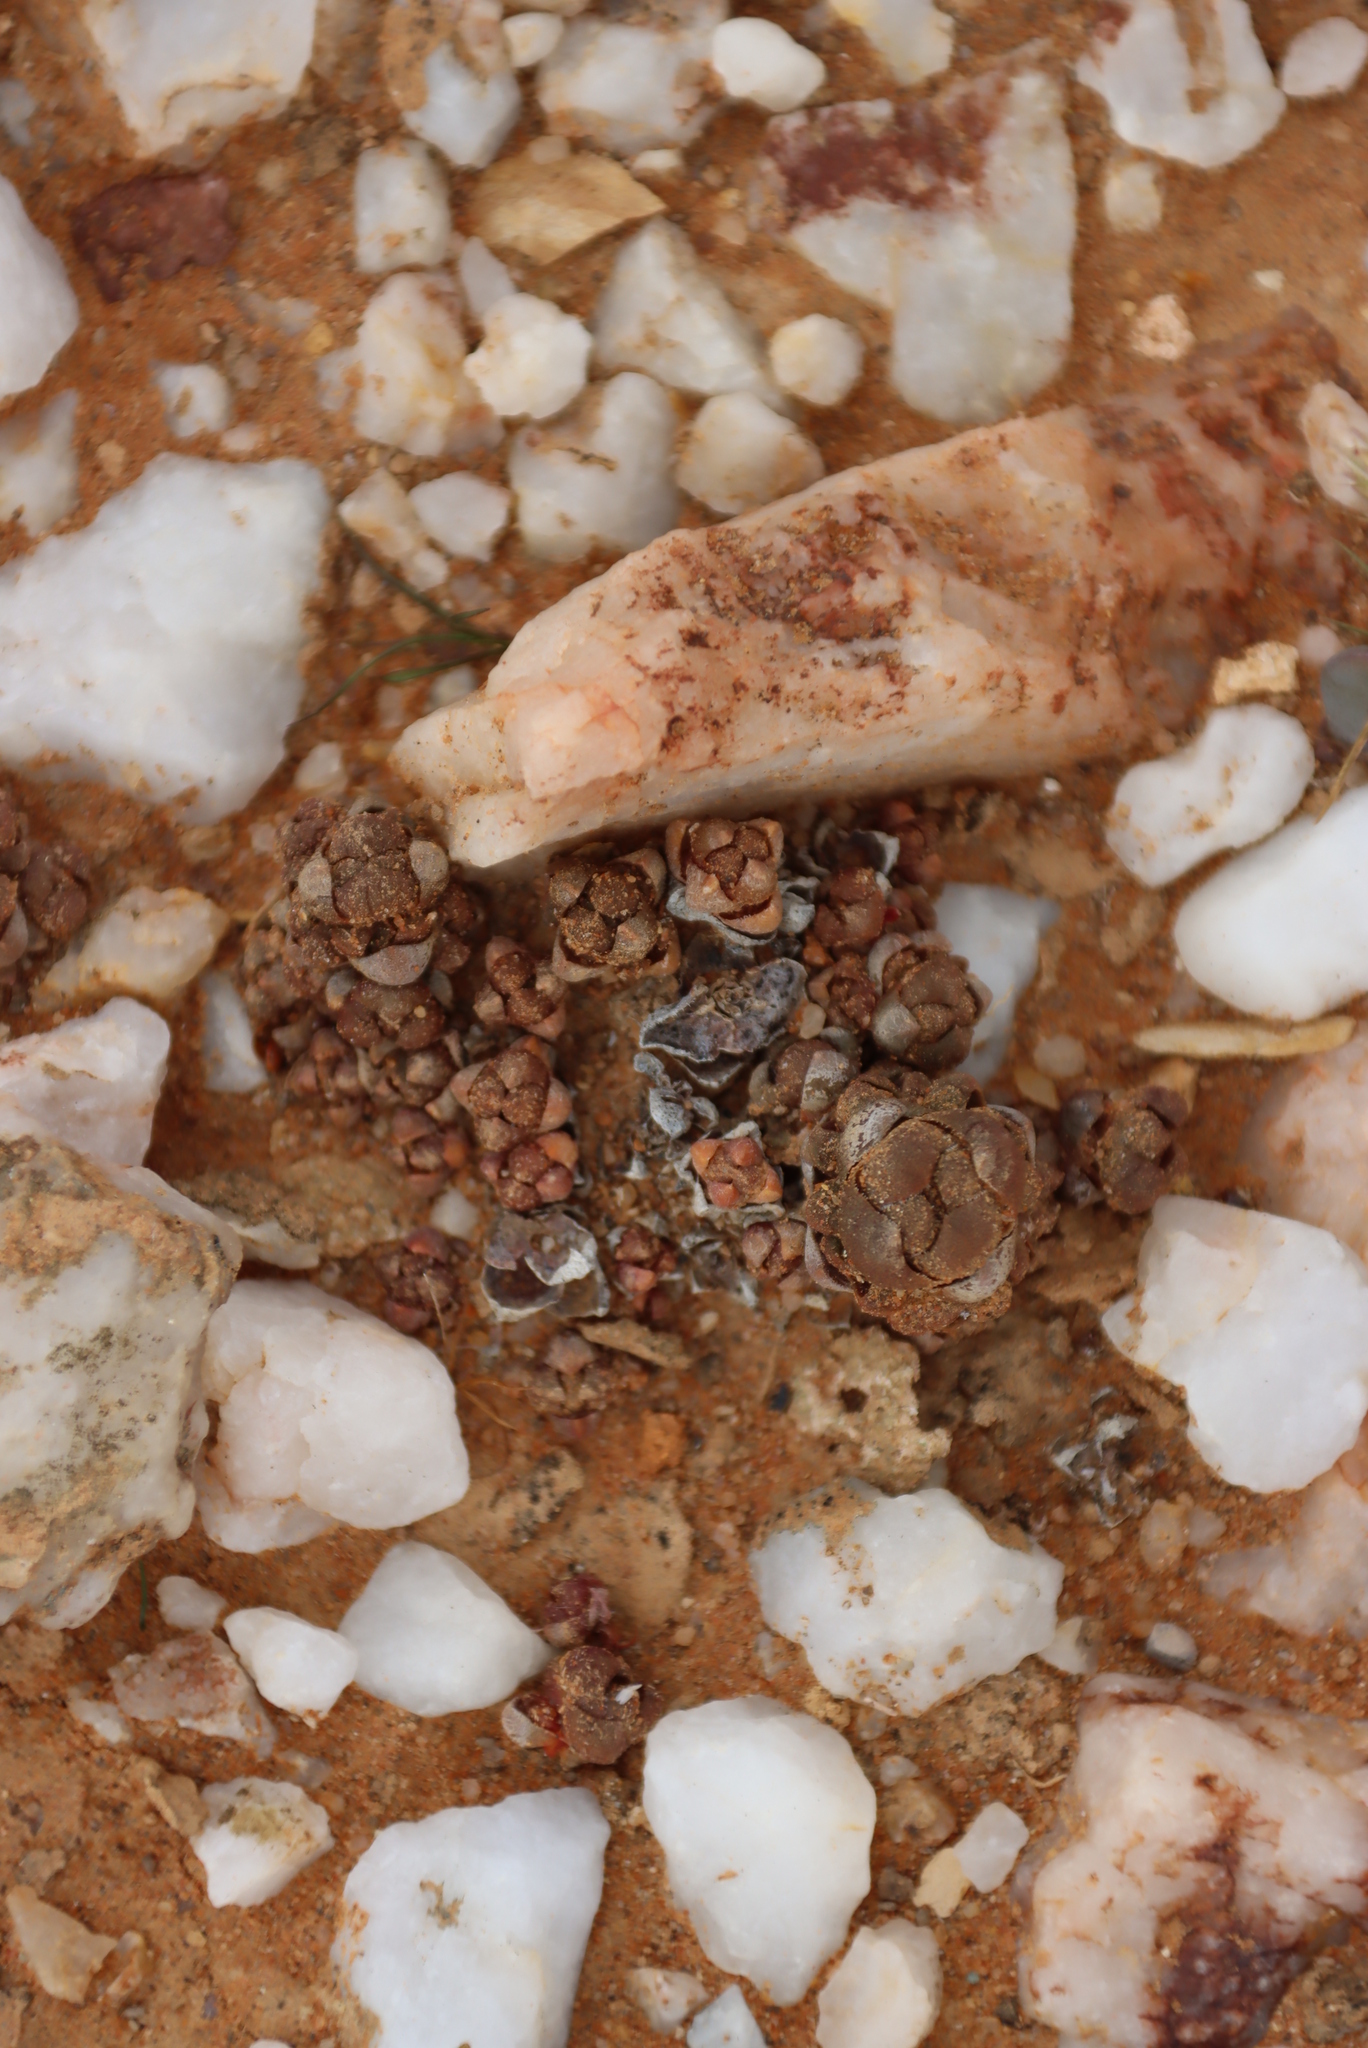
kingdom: Plantae
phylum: Tracheophyta
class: Magnoliopsida
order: Saxifragales
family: Crassulaceae
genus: Crassula
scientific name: Crassula columnaris
